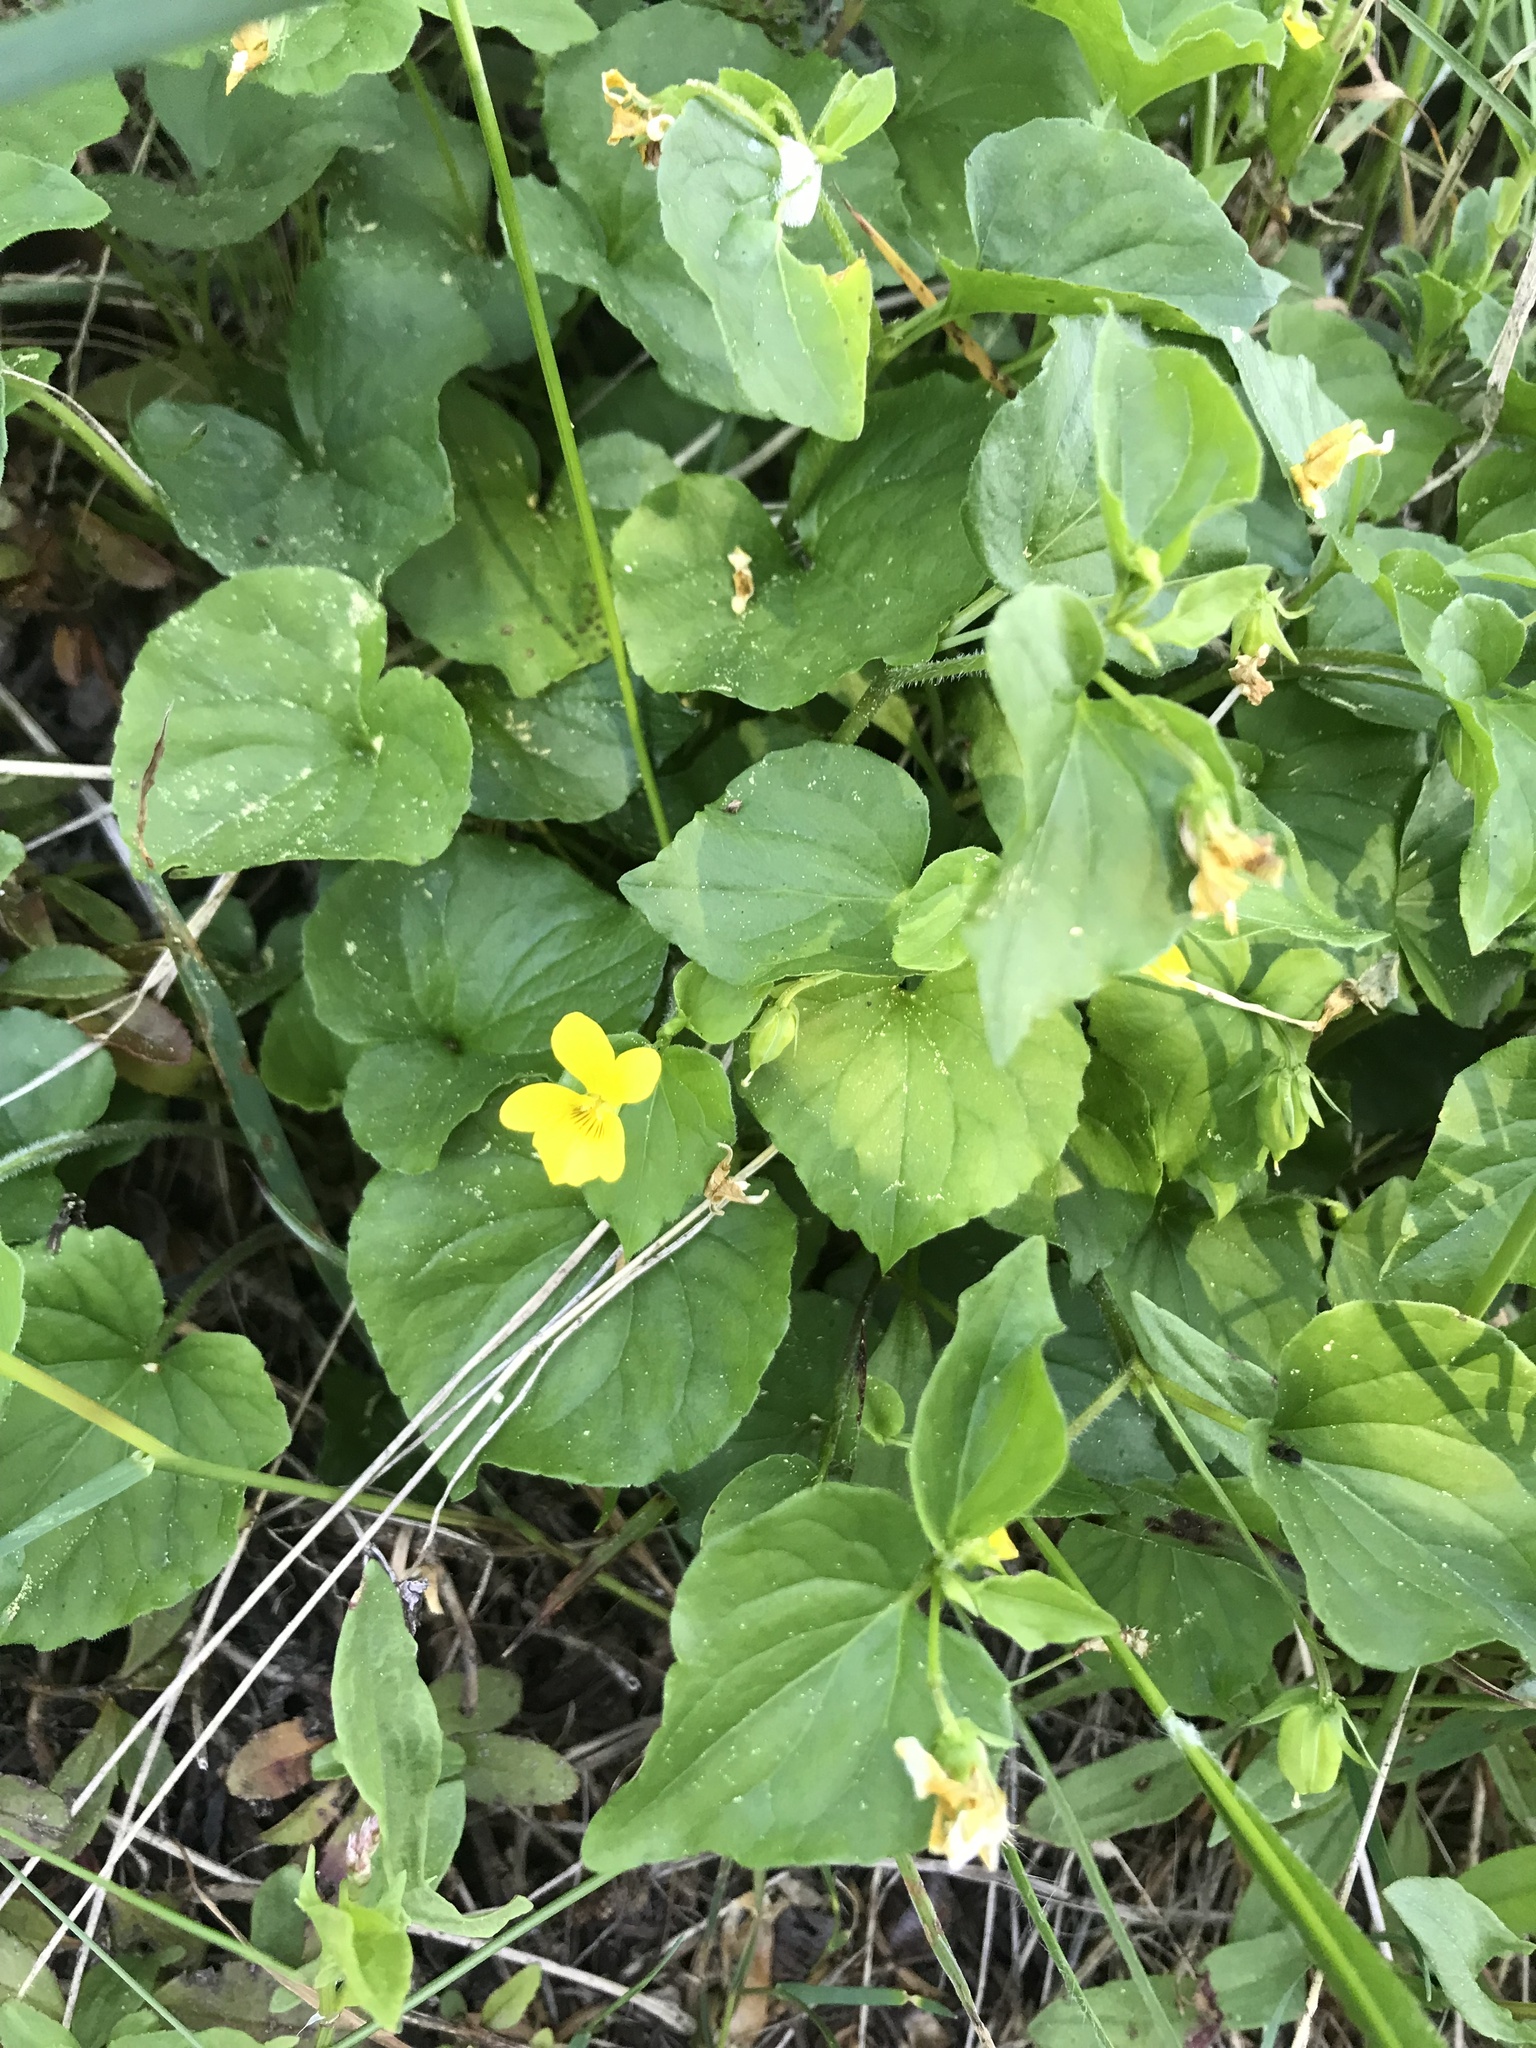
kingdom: Plantae
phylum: Tracheophyta
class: Magnoliopsida
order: Malpighiales
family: Violaceae
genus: Viola
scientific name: Viola glabella
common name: Stream violet
